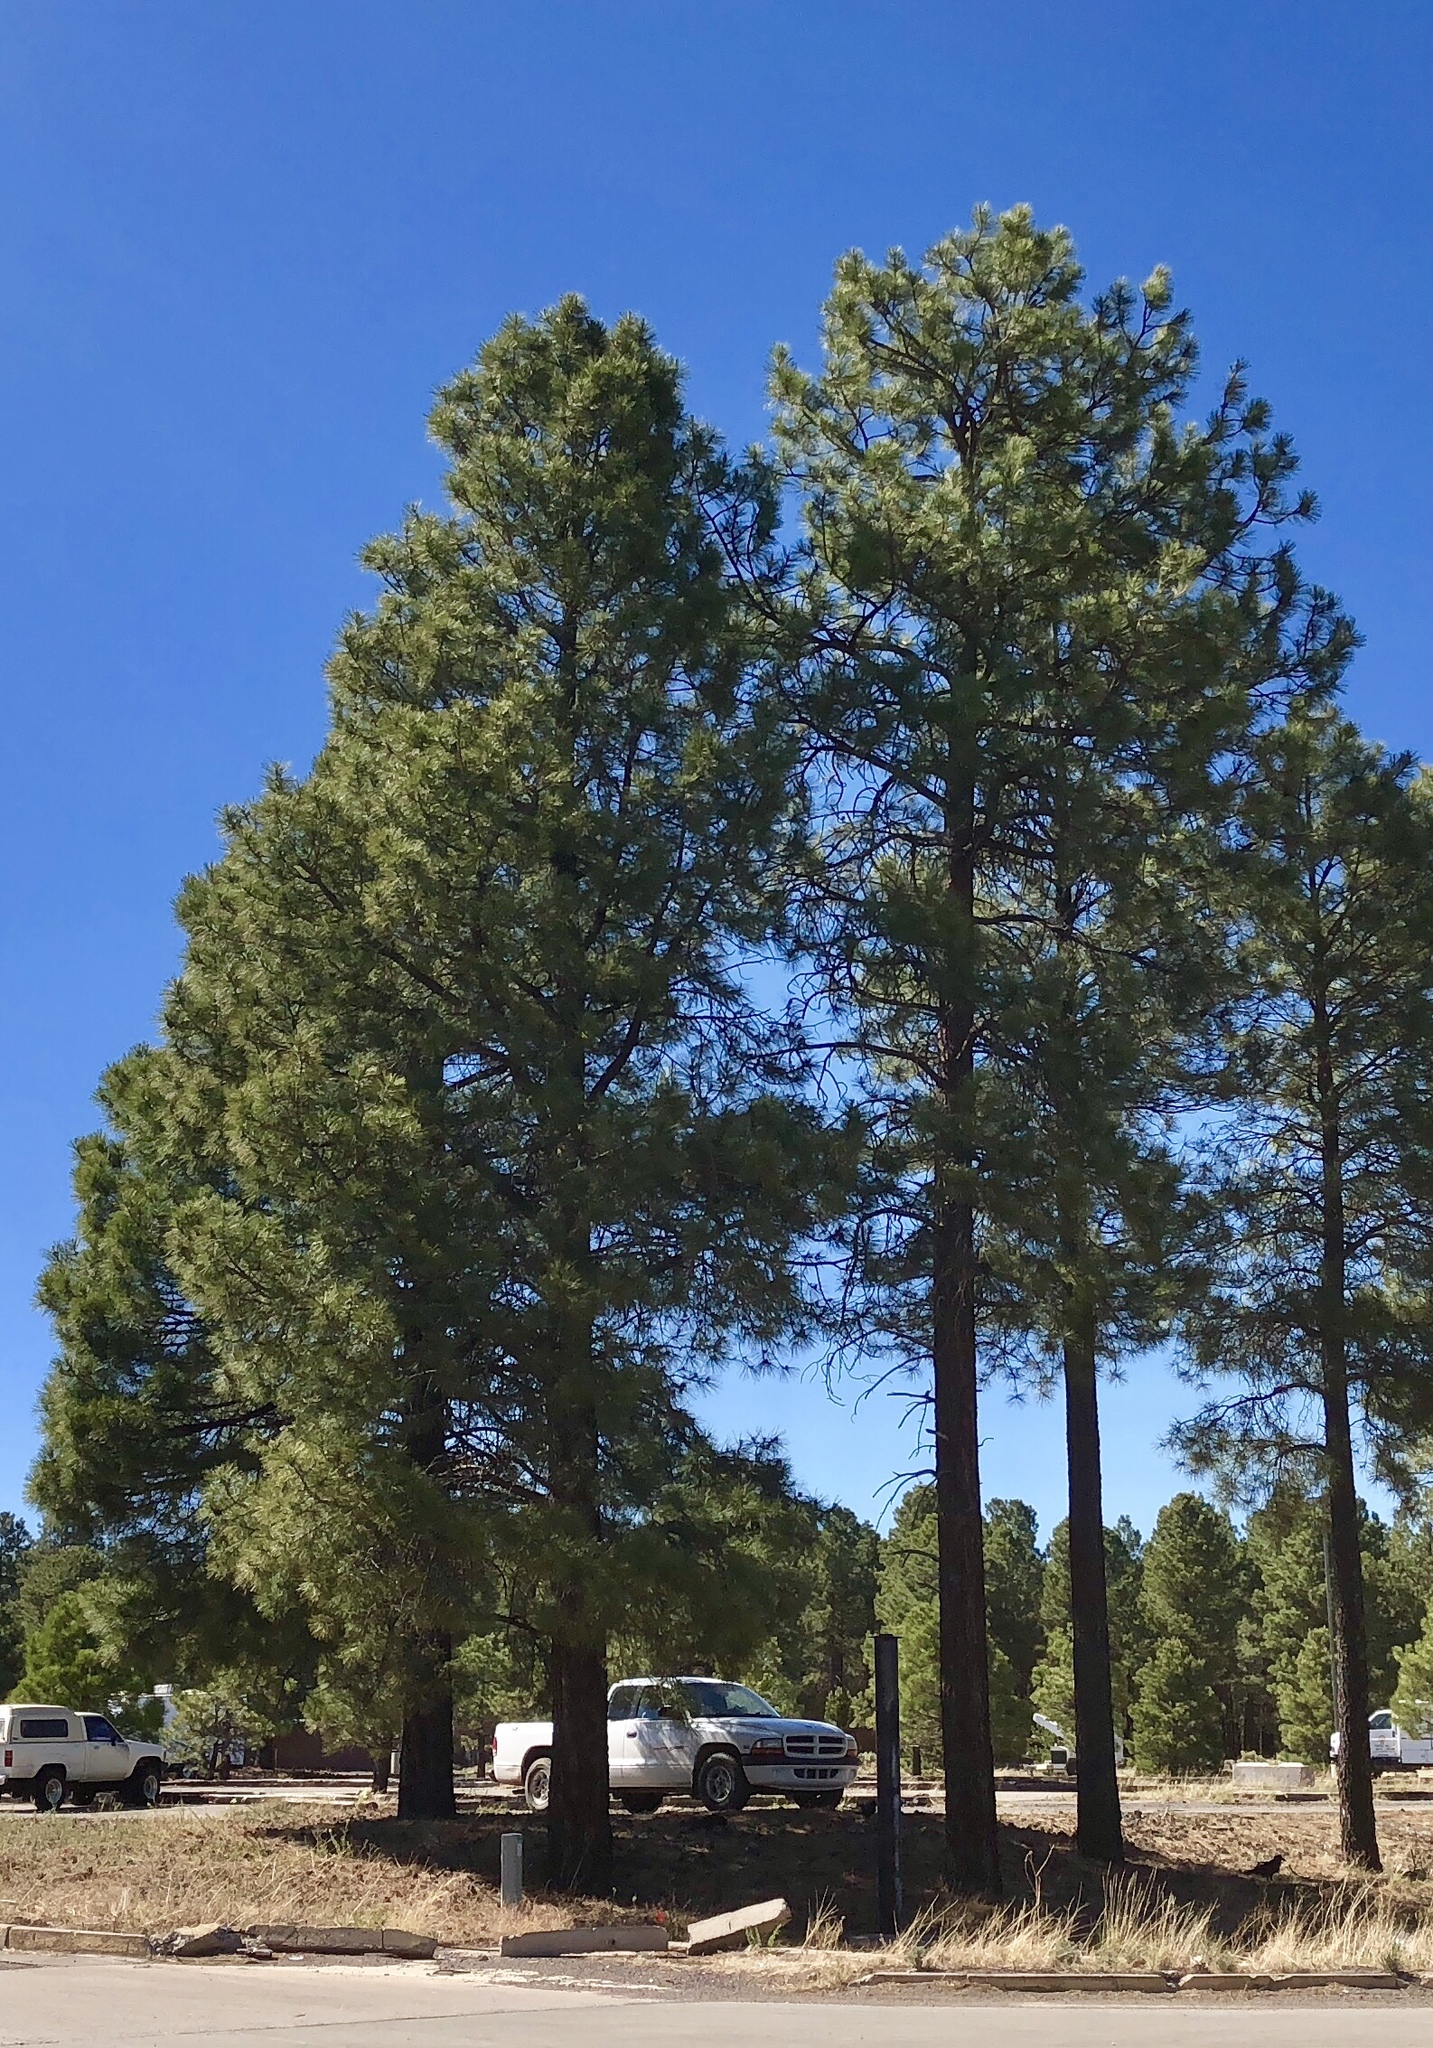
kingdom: Plantae
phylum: Tracheophyta
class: Pinopsida
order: Pinales
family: Pinaceae
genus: Pinus
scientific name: Pinus ponderosa
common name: Western yellow-pine
